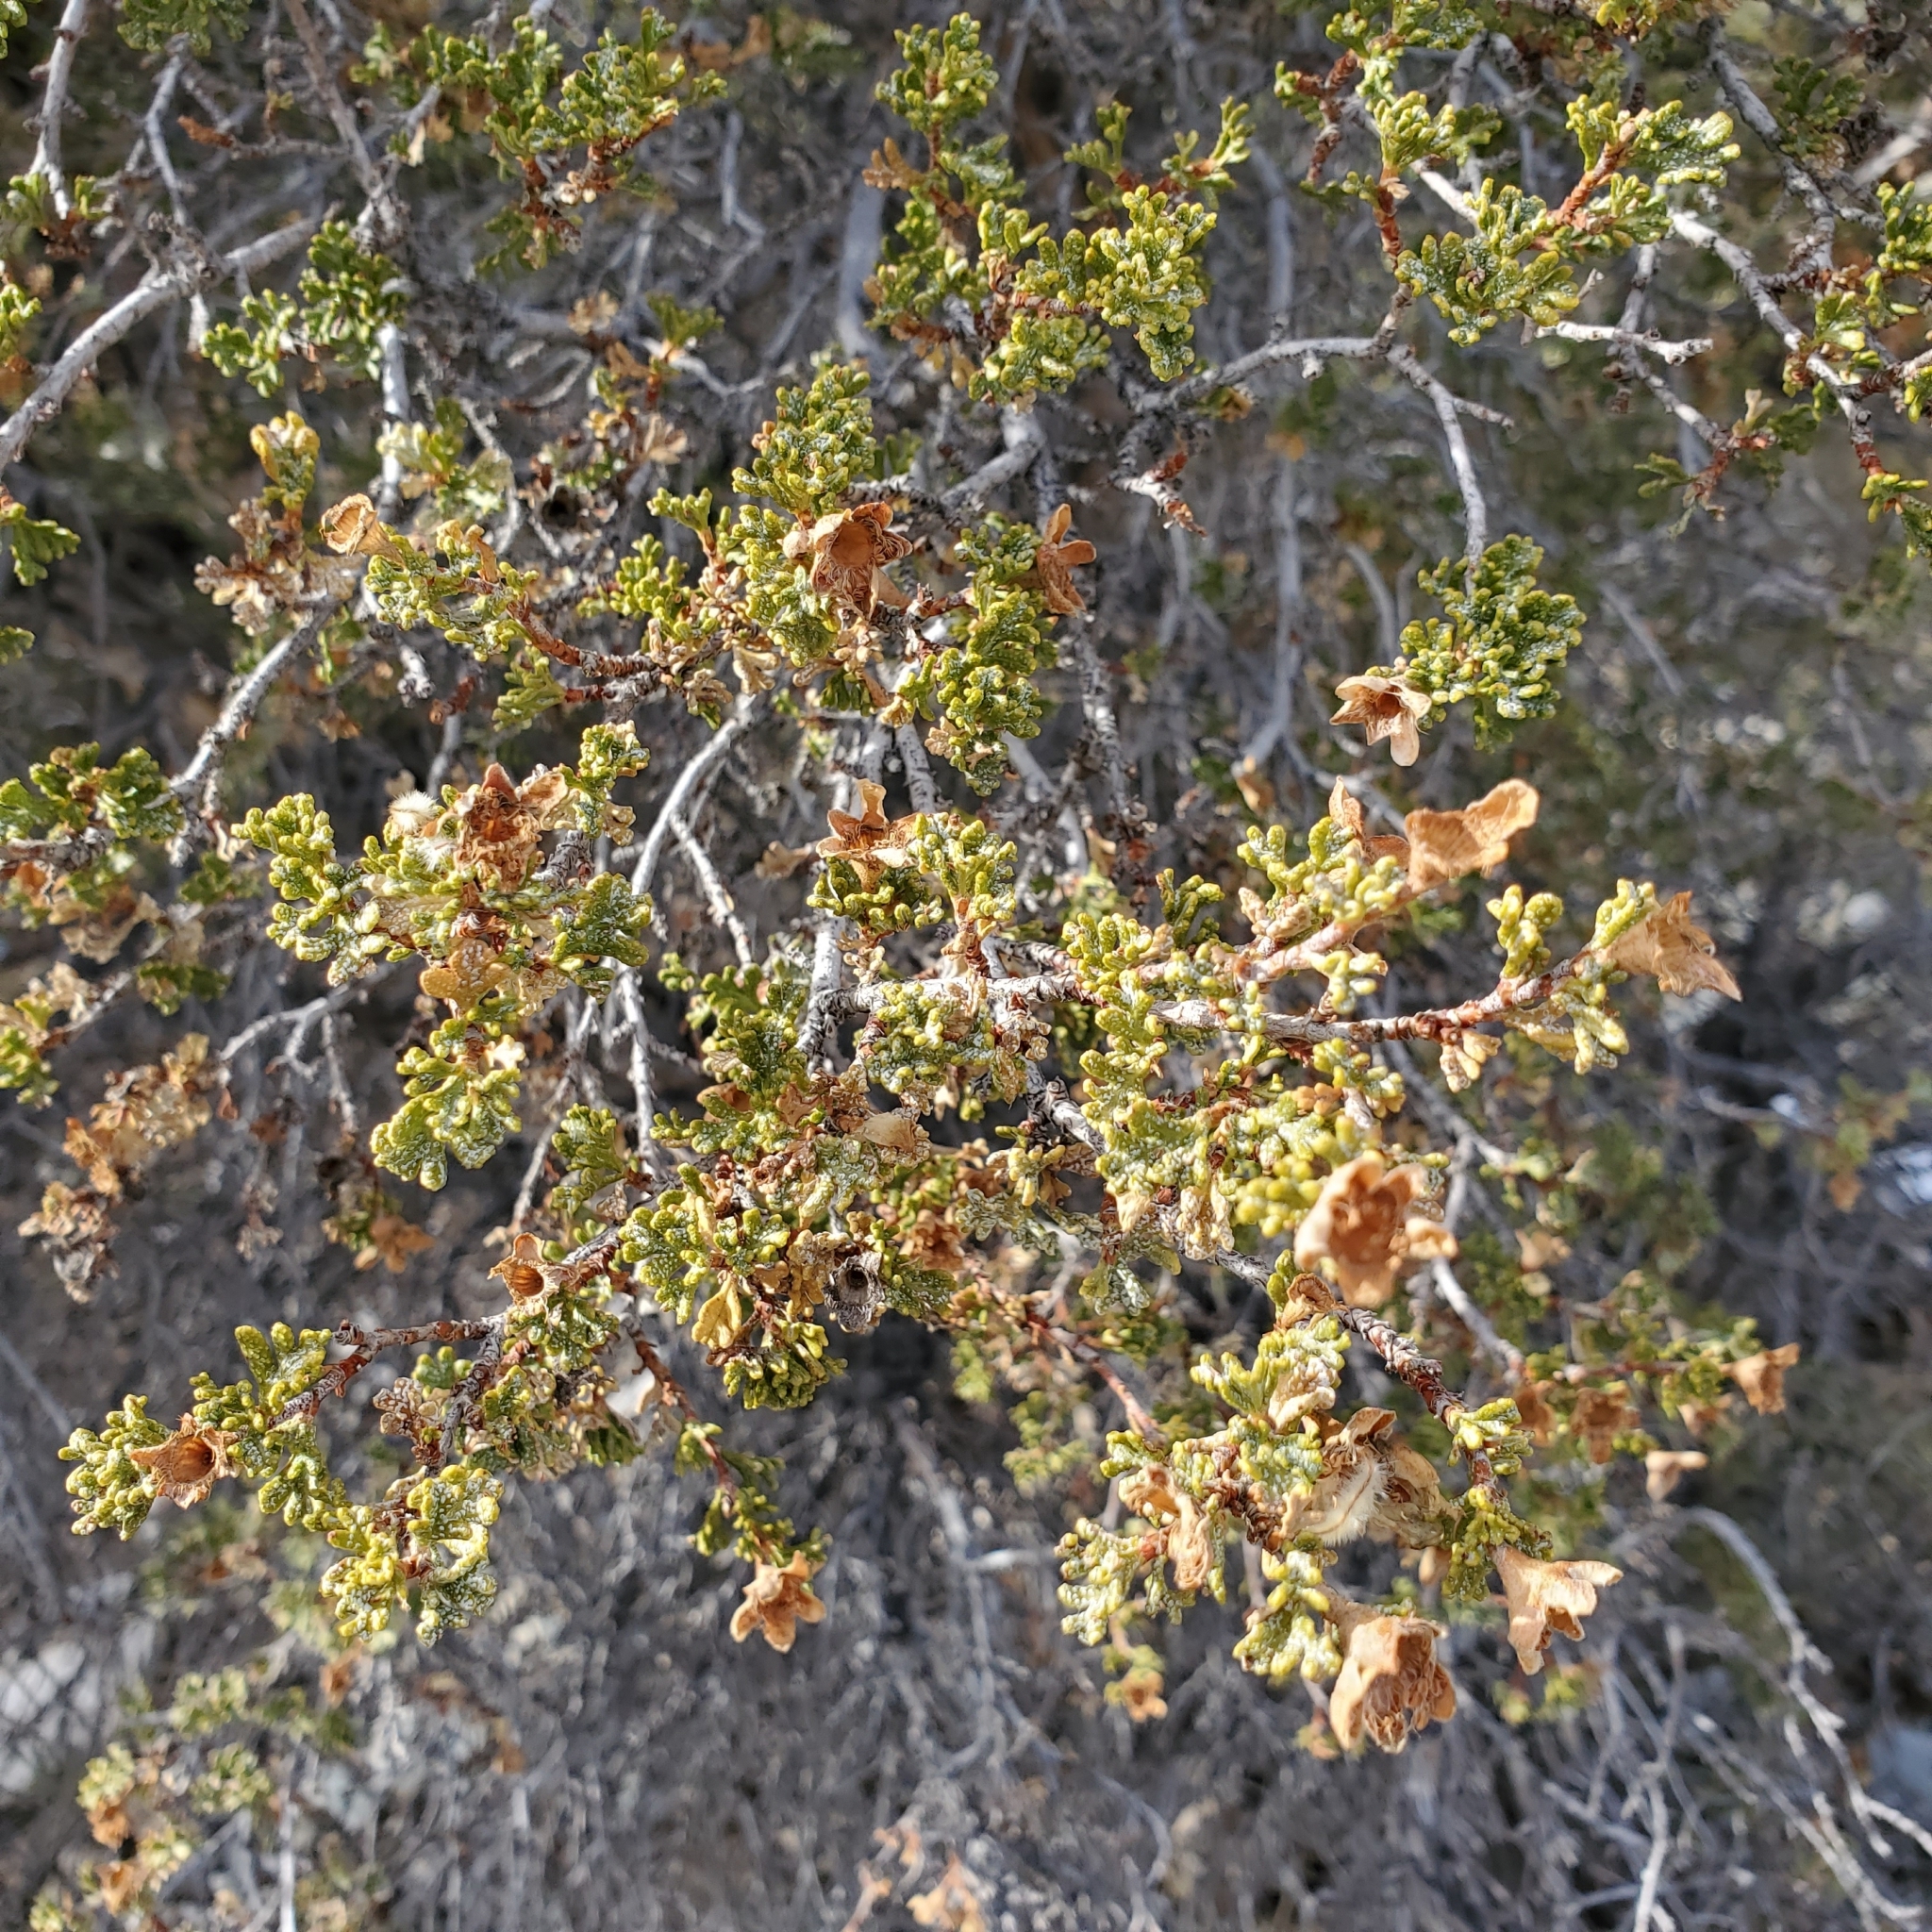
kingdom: Plantae
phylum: Tracheophyta
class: Magnoliopsida
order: Rosales
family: Rosaceae
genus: Purshia
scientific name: Purshia stansburiana
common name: Stansbury's cliffrose
